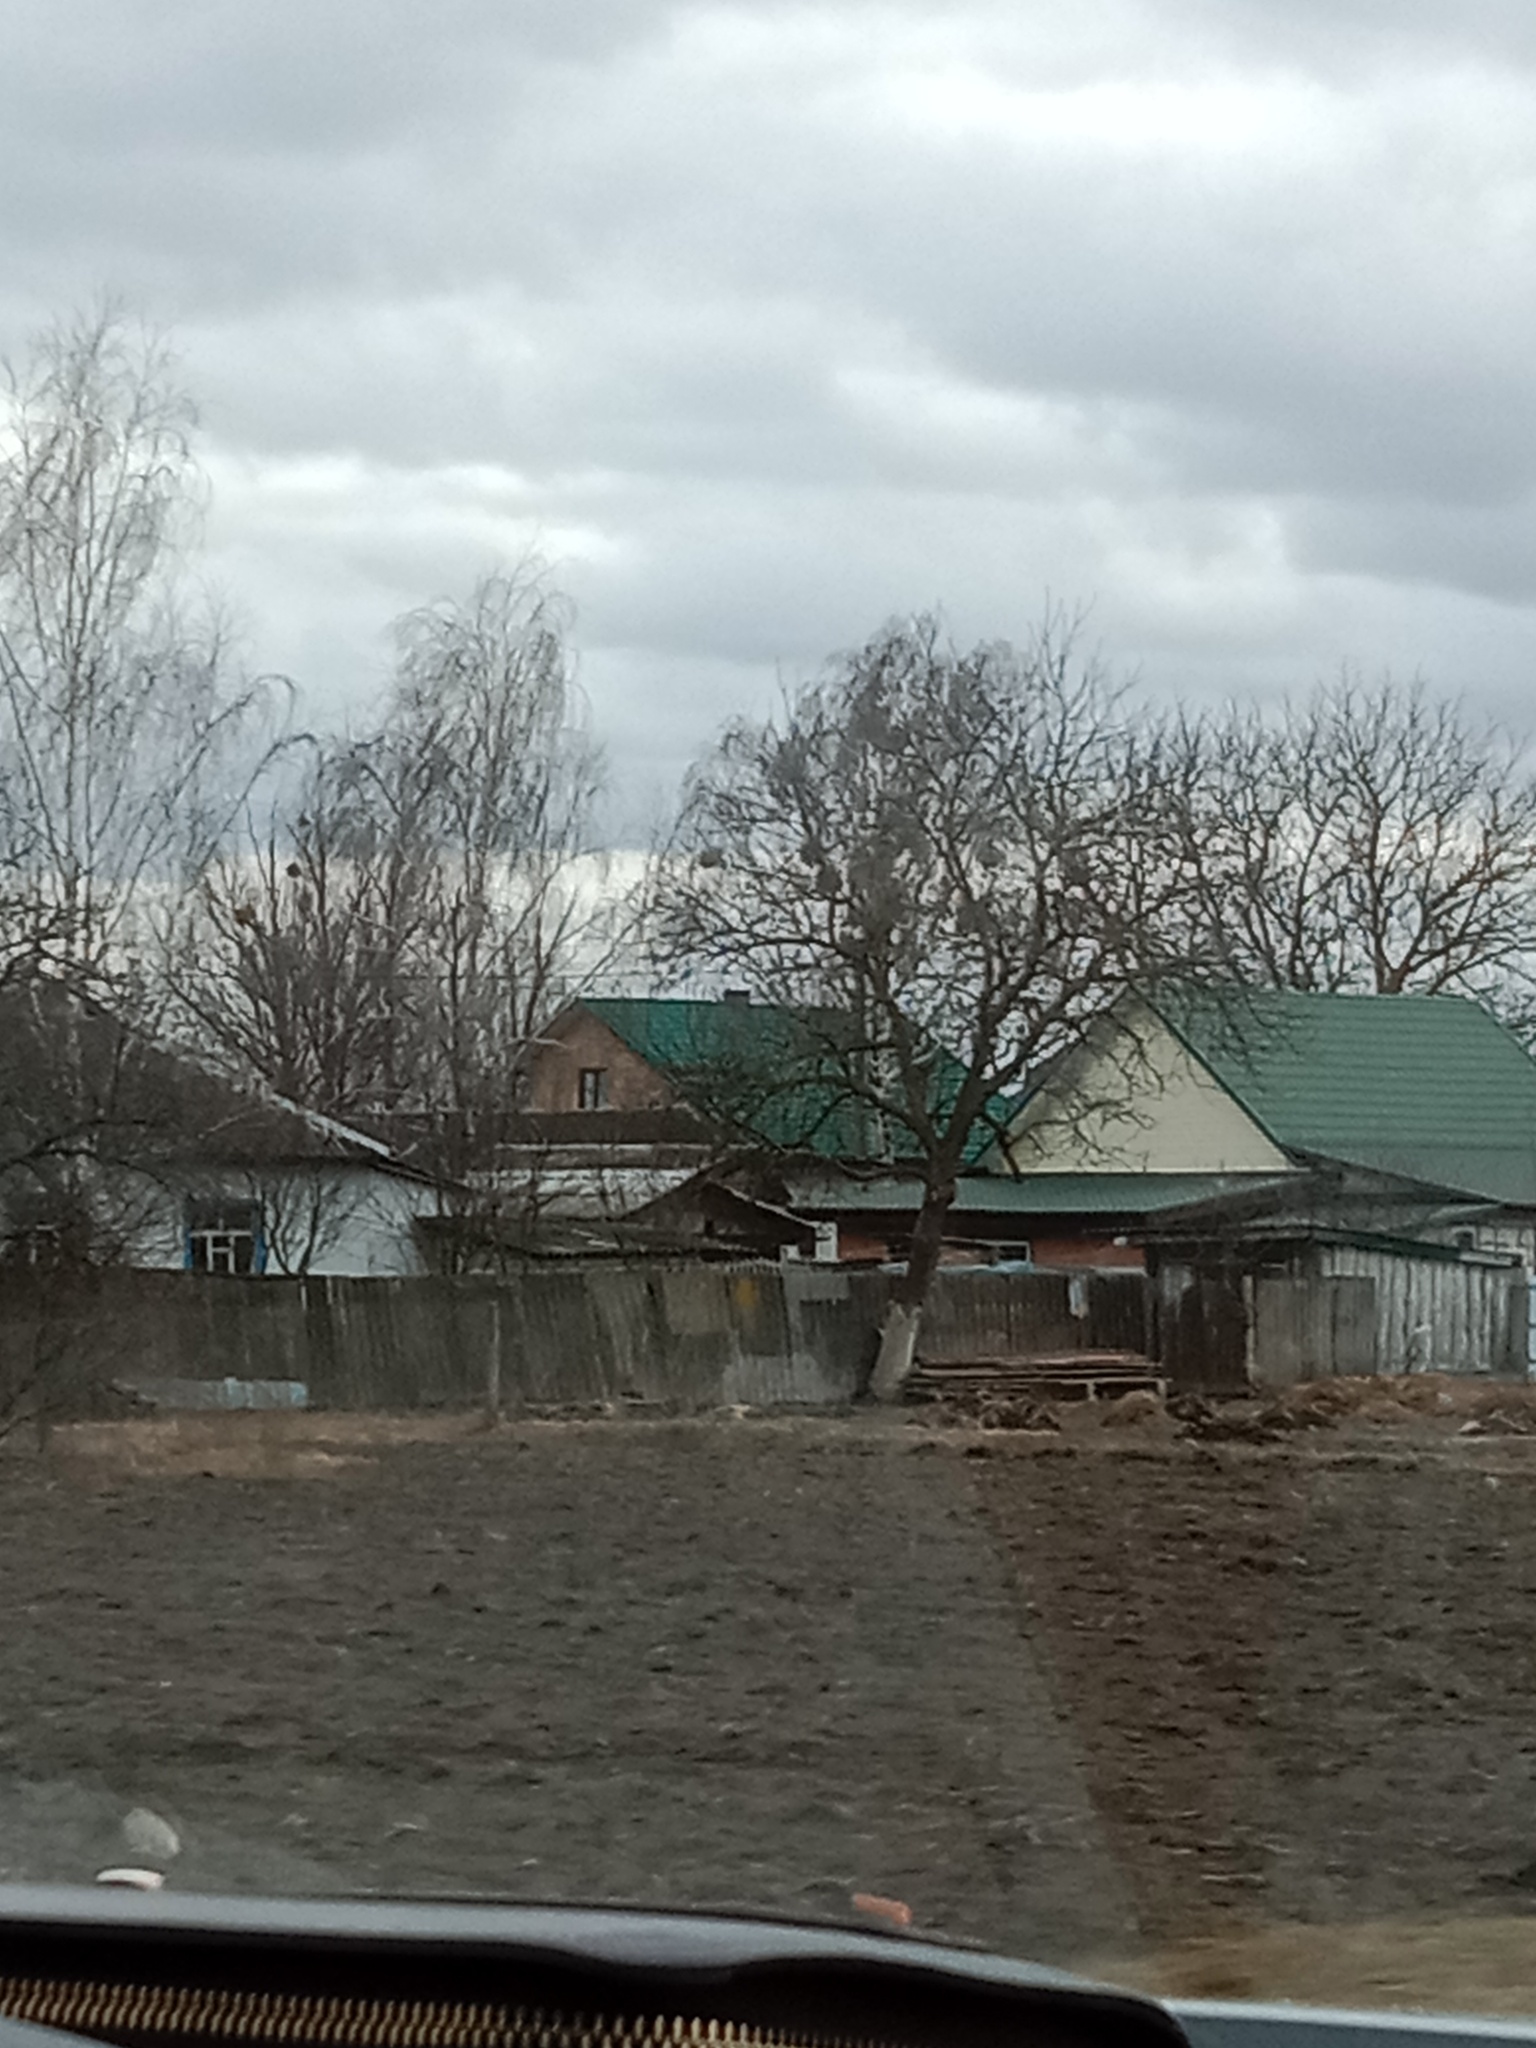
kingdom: Plantae
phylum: Tracheophyta
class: Magnoliopsida
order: Santalales
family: Viscaceae
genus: Viscum
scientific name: Viscum album
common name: Mistletoe
